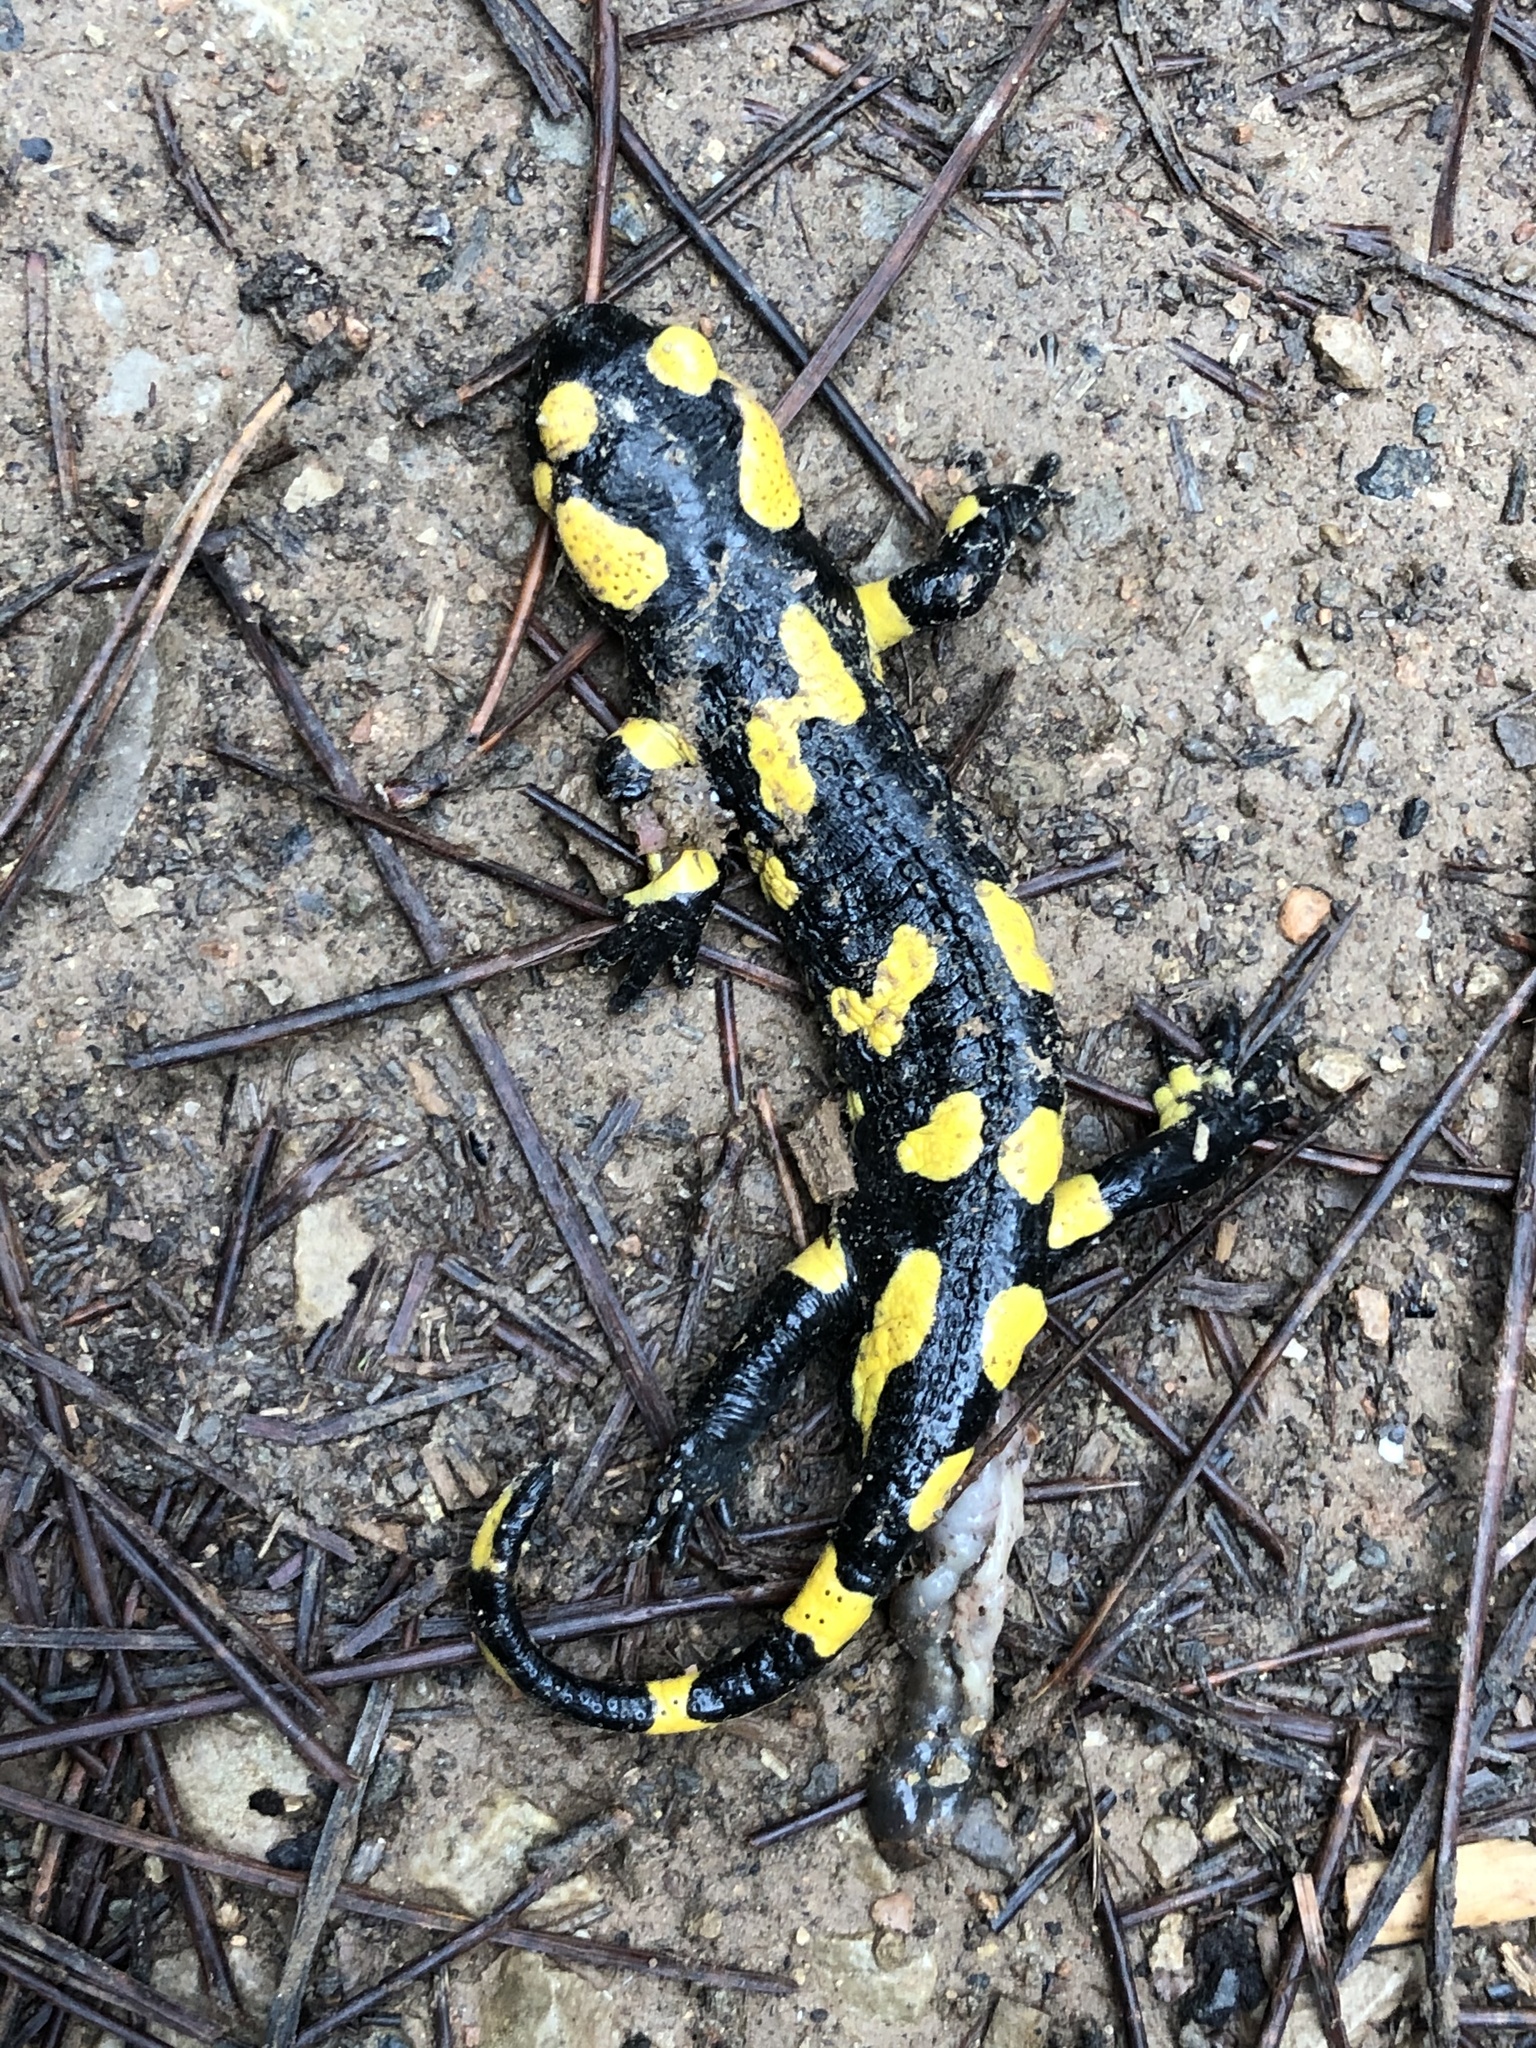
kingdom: Animalia
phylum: Chordata
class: Amphibia
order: Caudata
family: Salamandridae
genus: Salamandra
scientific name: Salamandra salamandra
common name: Fire salamander
